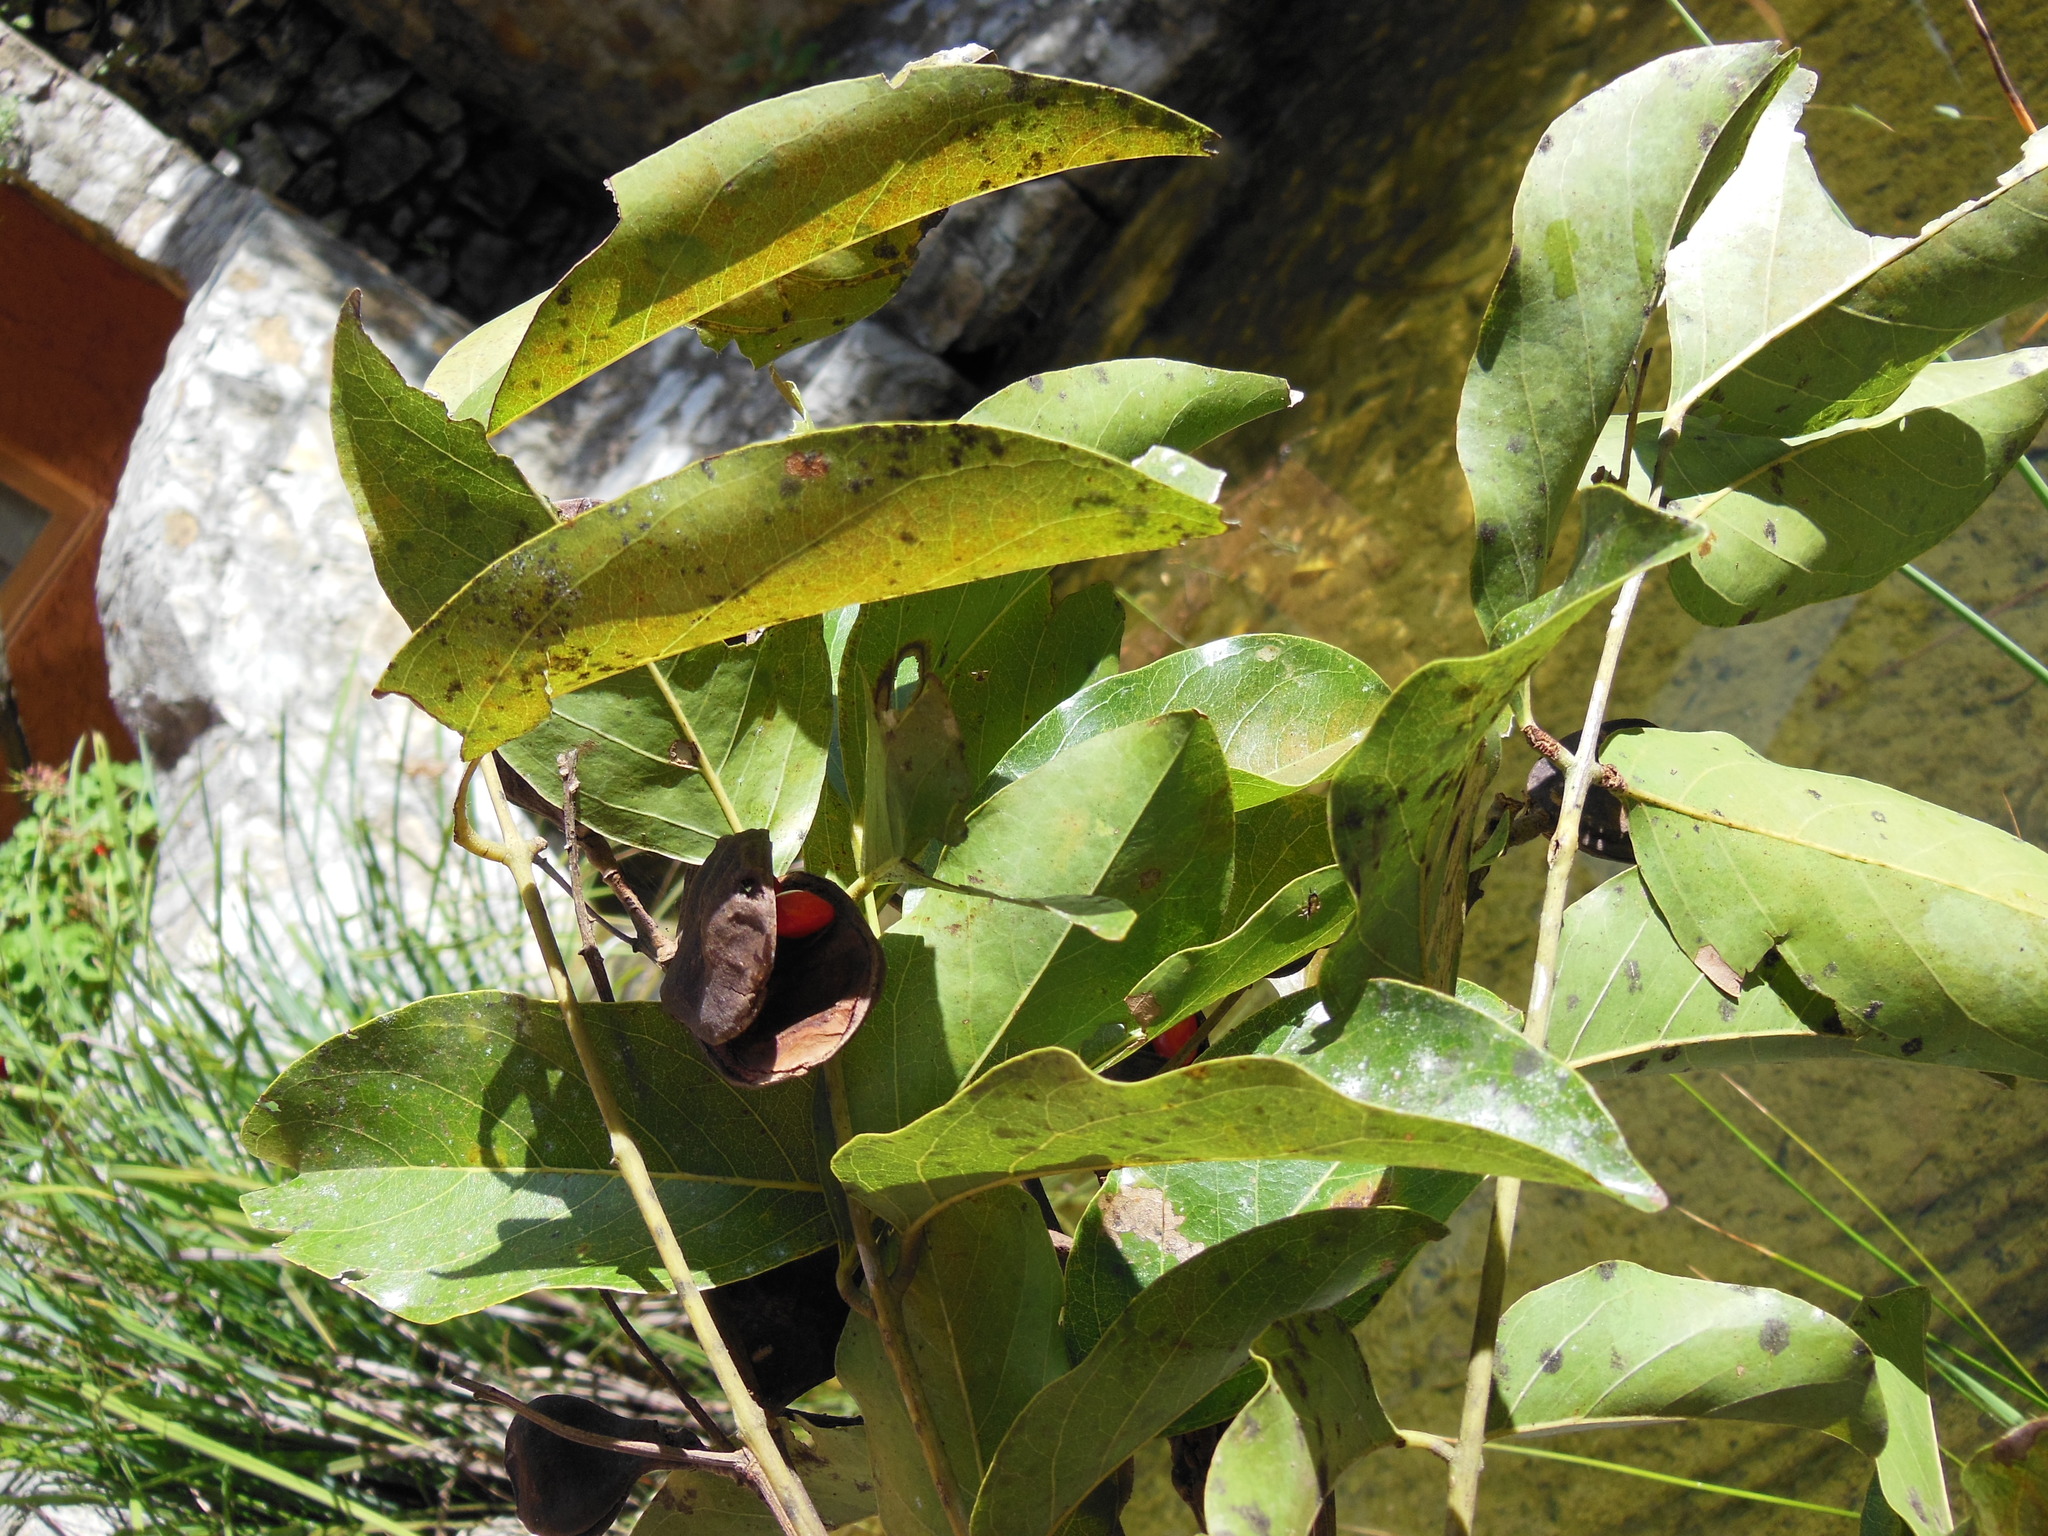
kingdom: Plantae
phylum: Tracheophyta
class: Magnoliopsida
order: Fabales
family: Fabaceae
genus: Ormosia
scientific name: Ormosia macrocalyx
